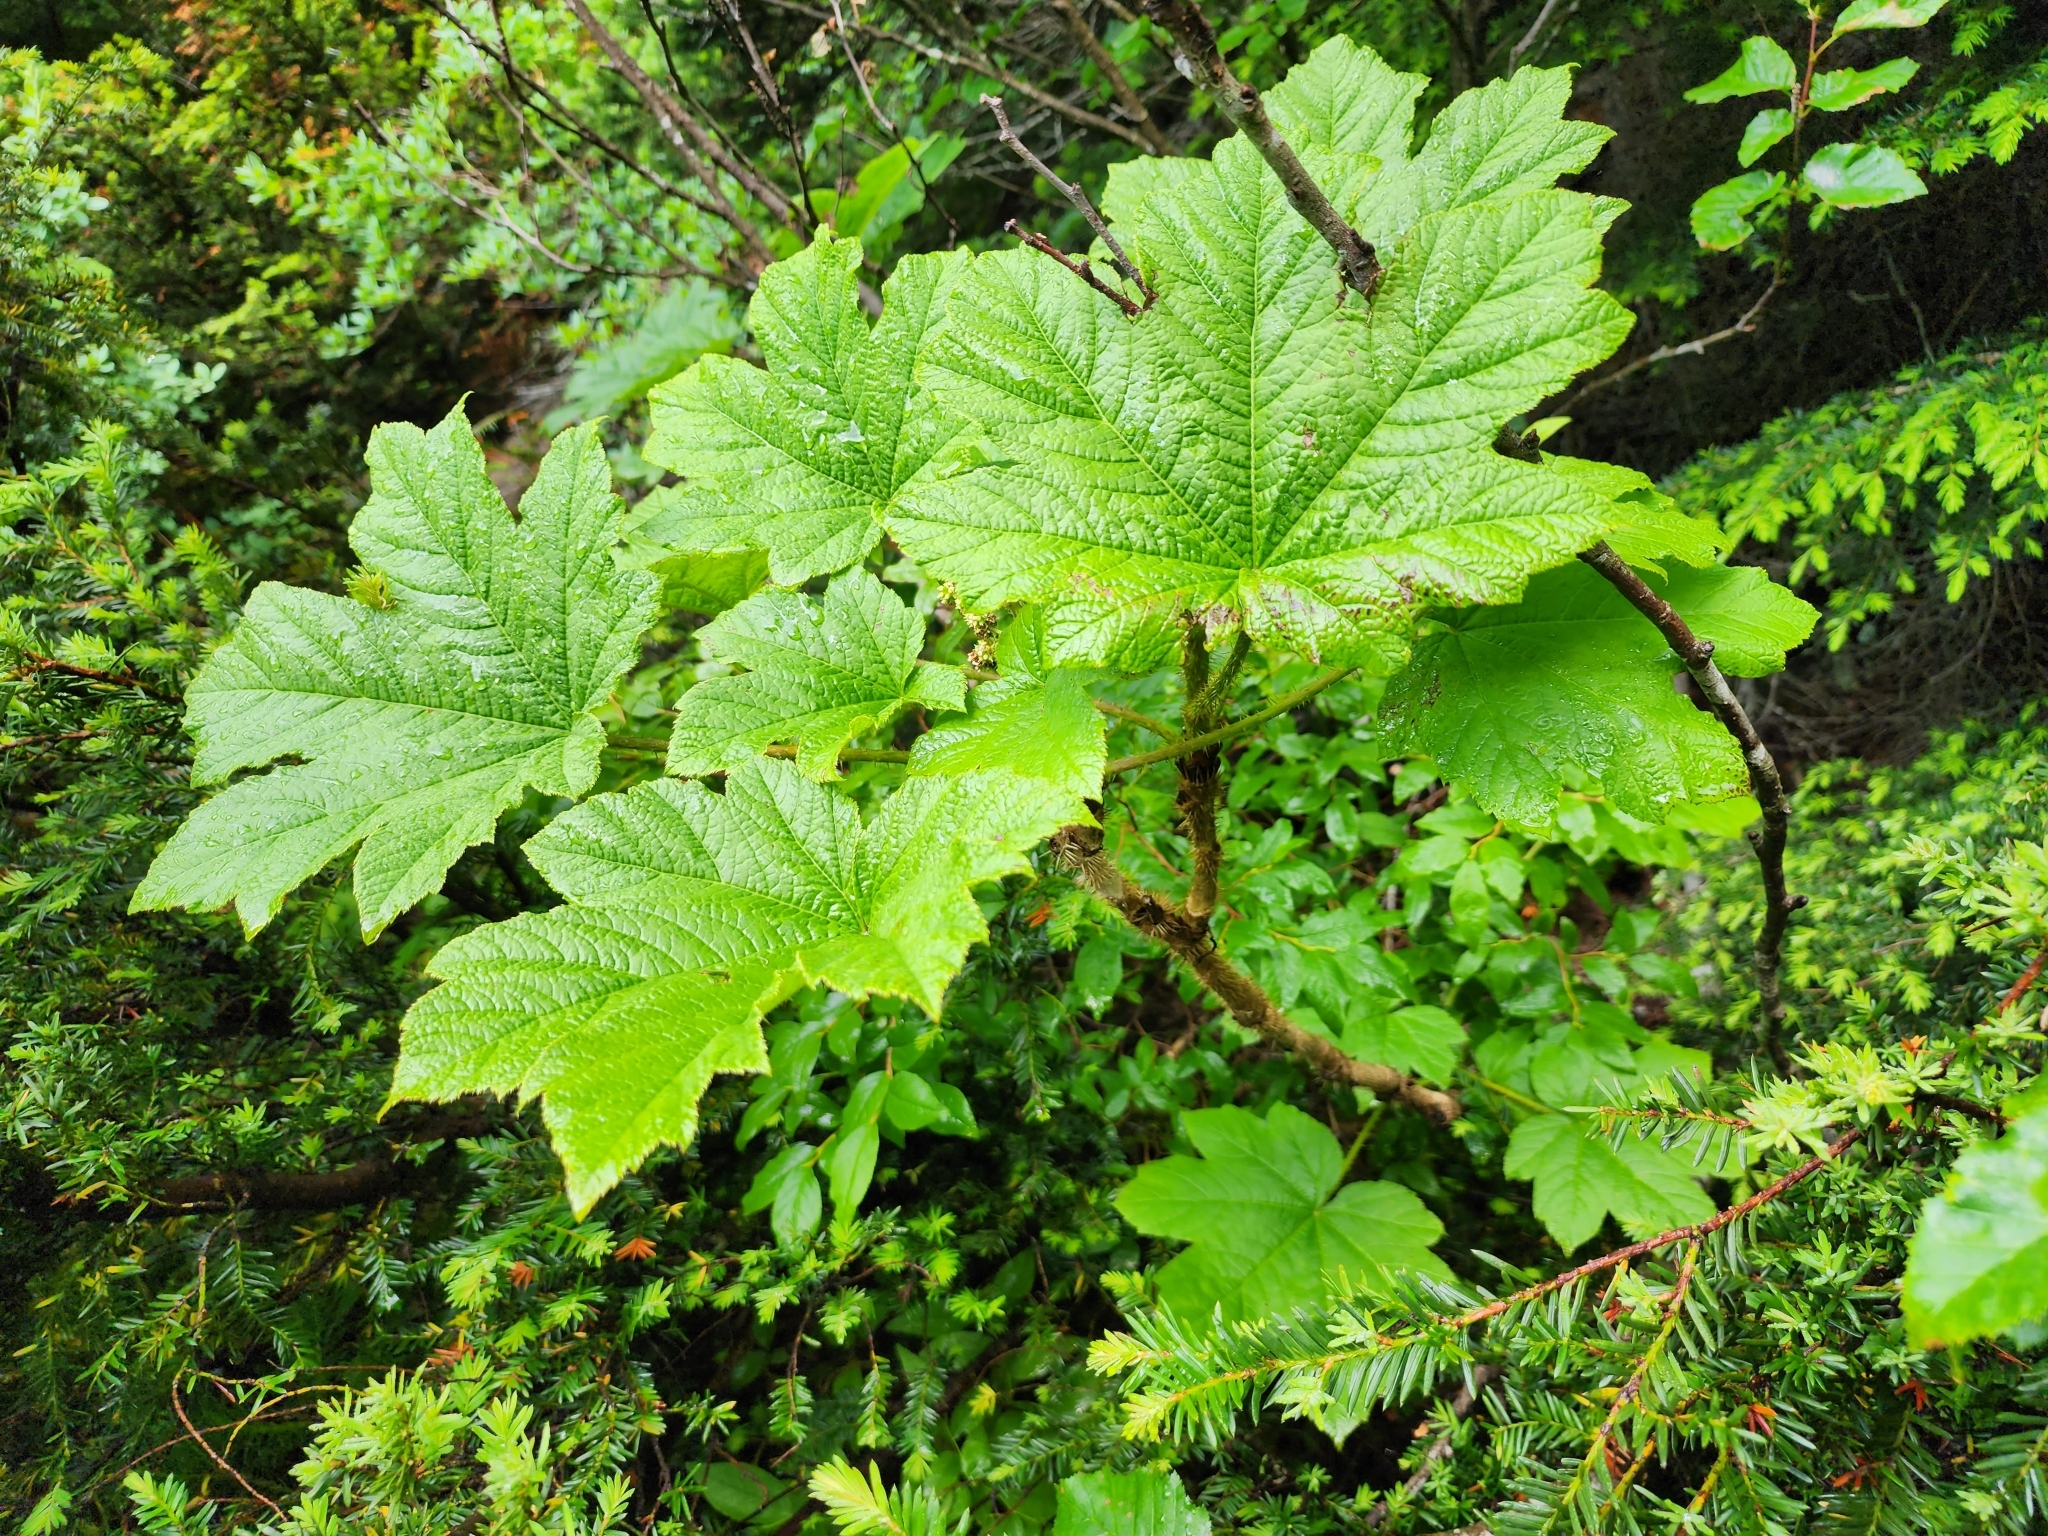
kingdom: Plantae
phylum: Tracheophyta
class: Magnoliopsida
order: Apiales
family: Araliaceae
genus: Oplopanax
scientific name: Oplopanax horridus
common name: Devil's walking-stick
